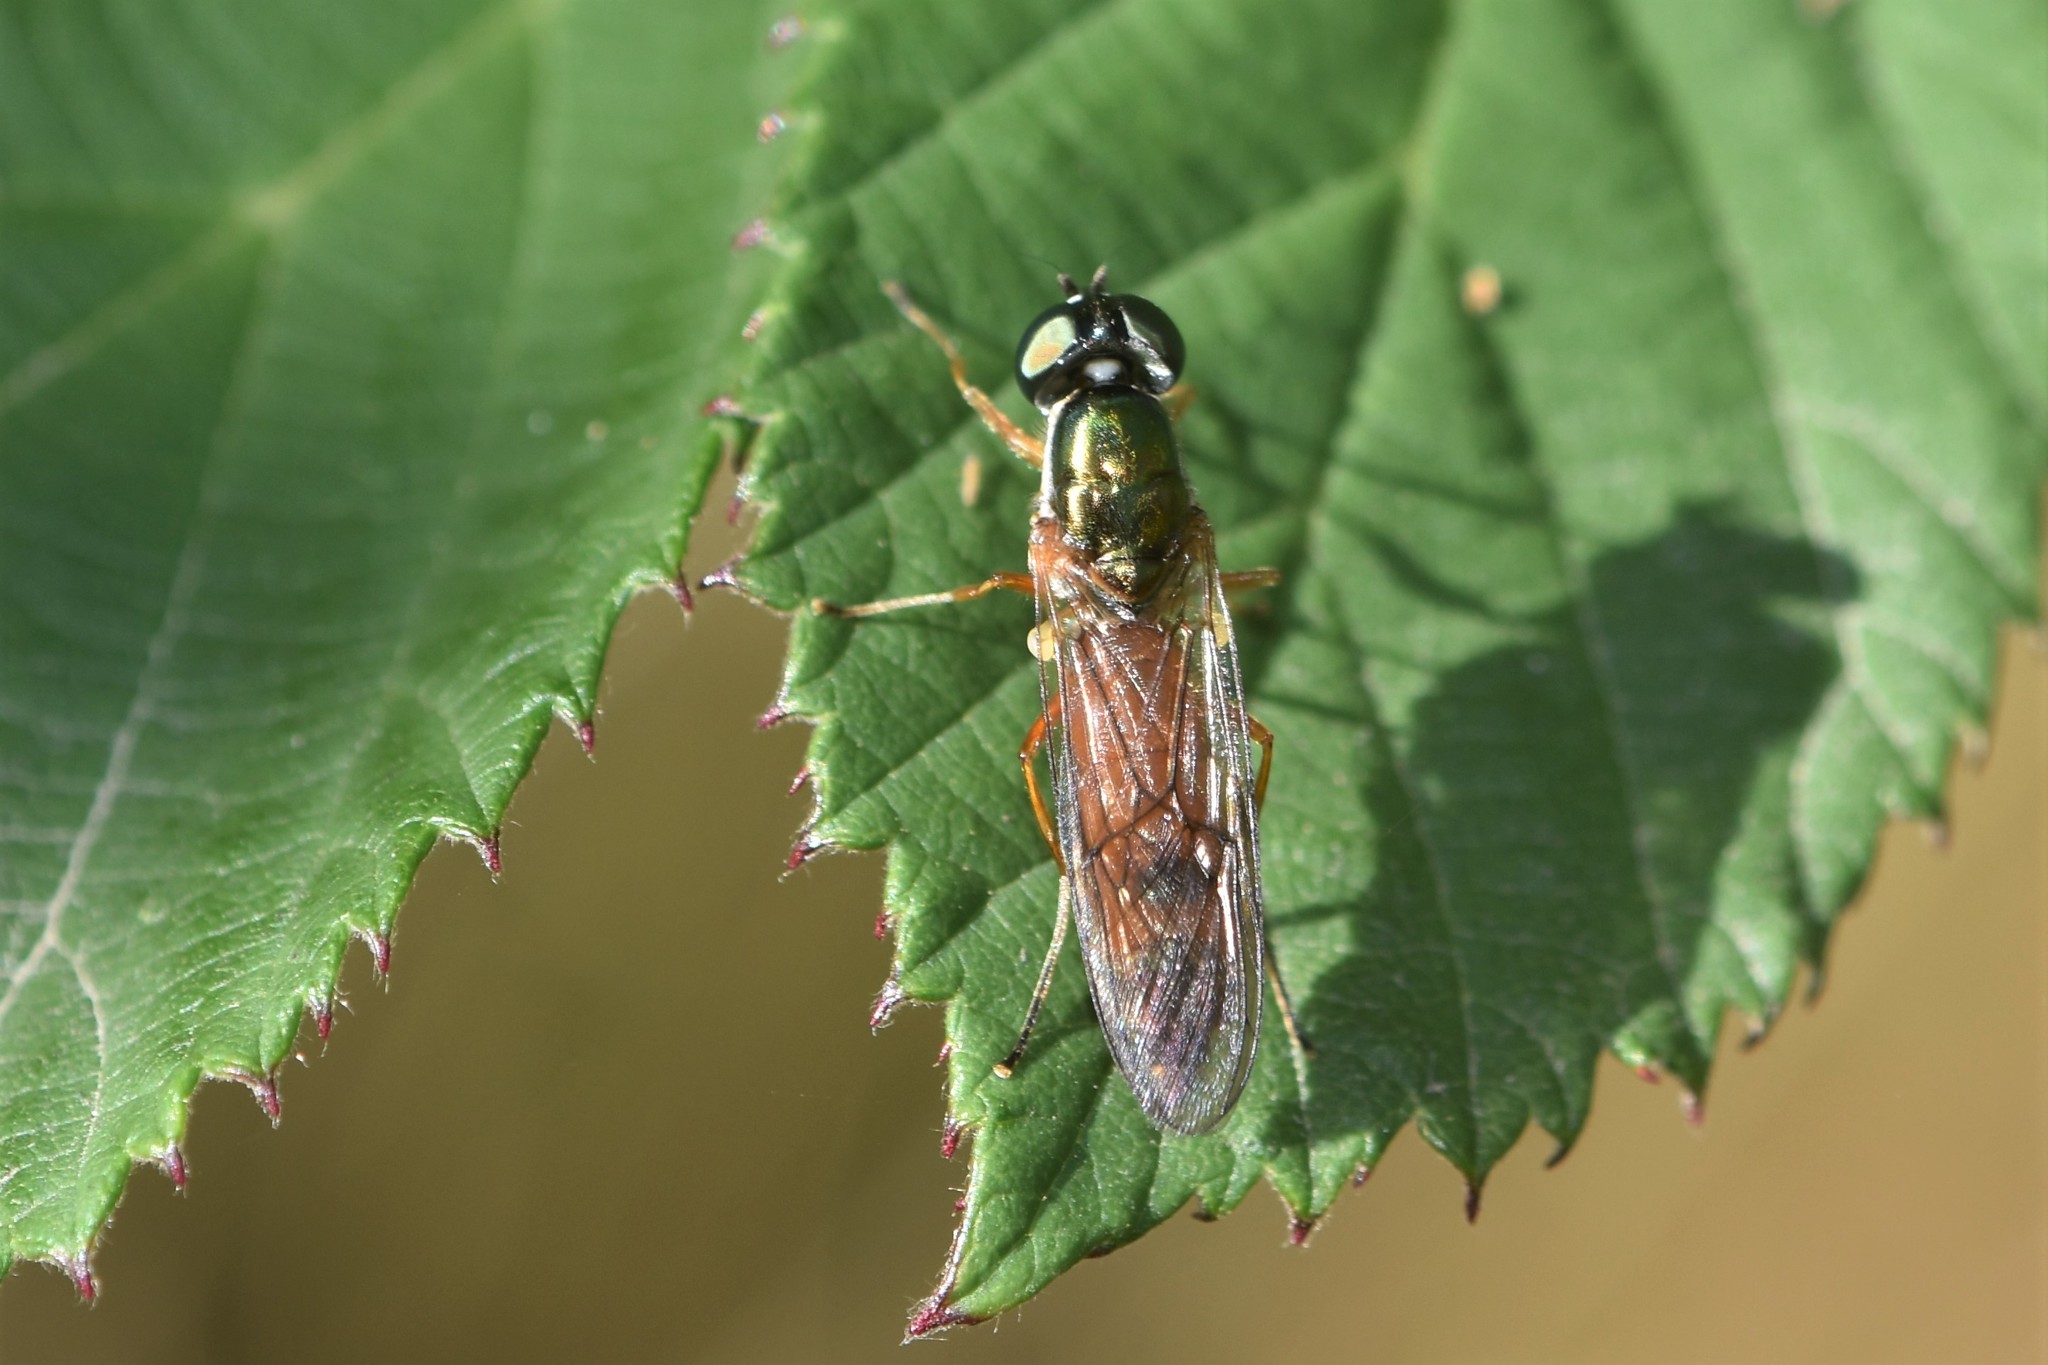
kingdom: Animalia
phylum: Arthropoda
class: Insecta
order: Diptera
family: Stratiomyidae
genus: Sargus
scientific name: Sargus bipunctatus
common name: Twin-spot centurion
